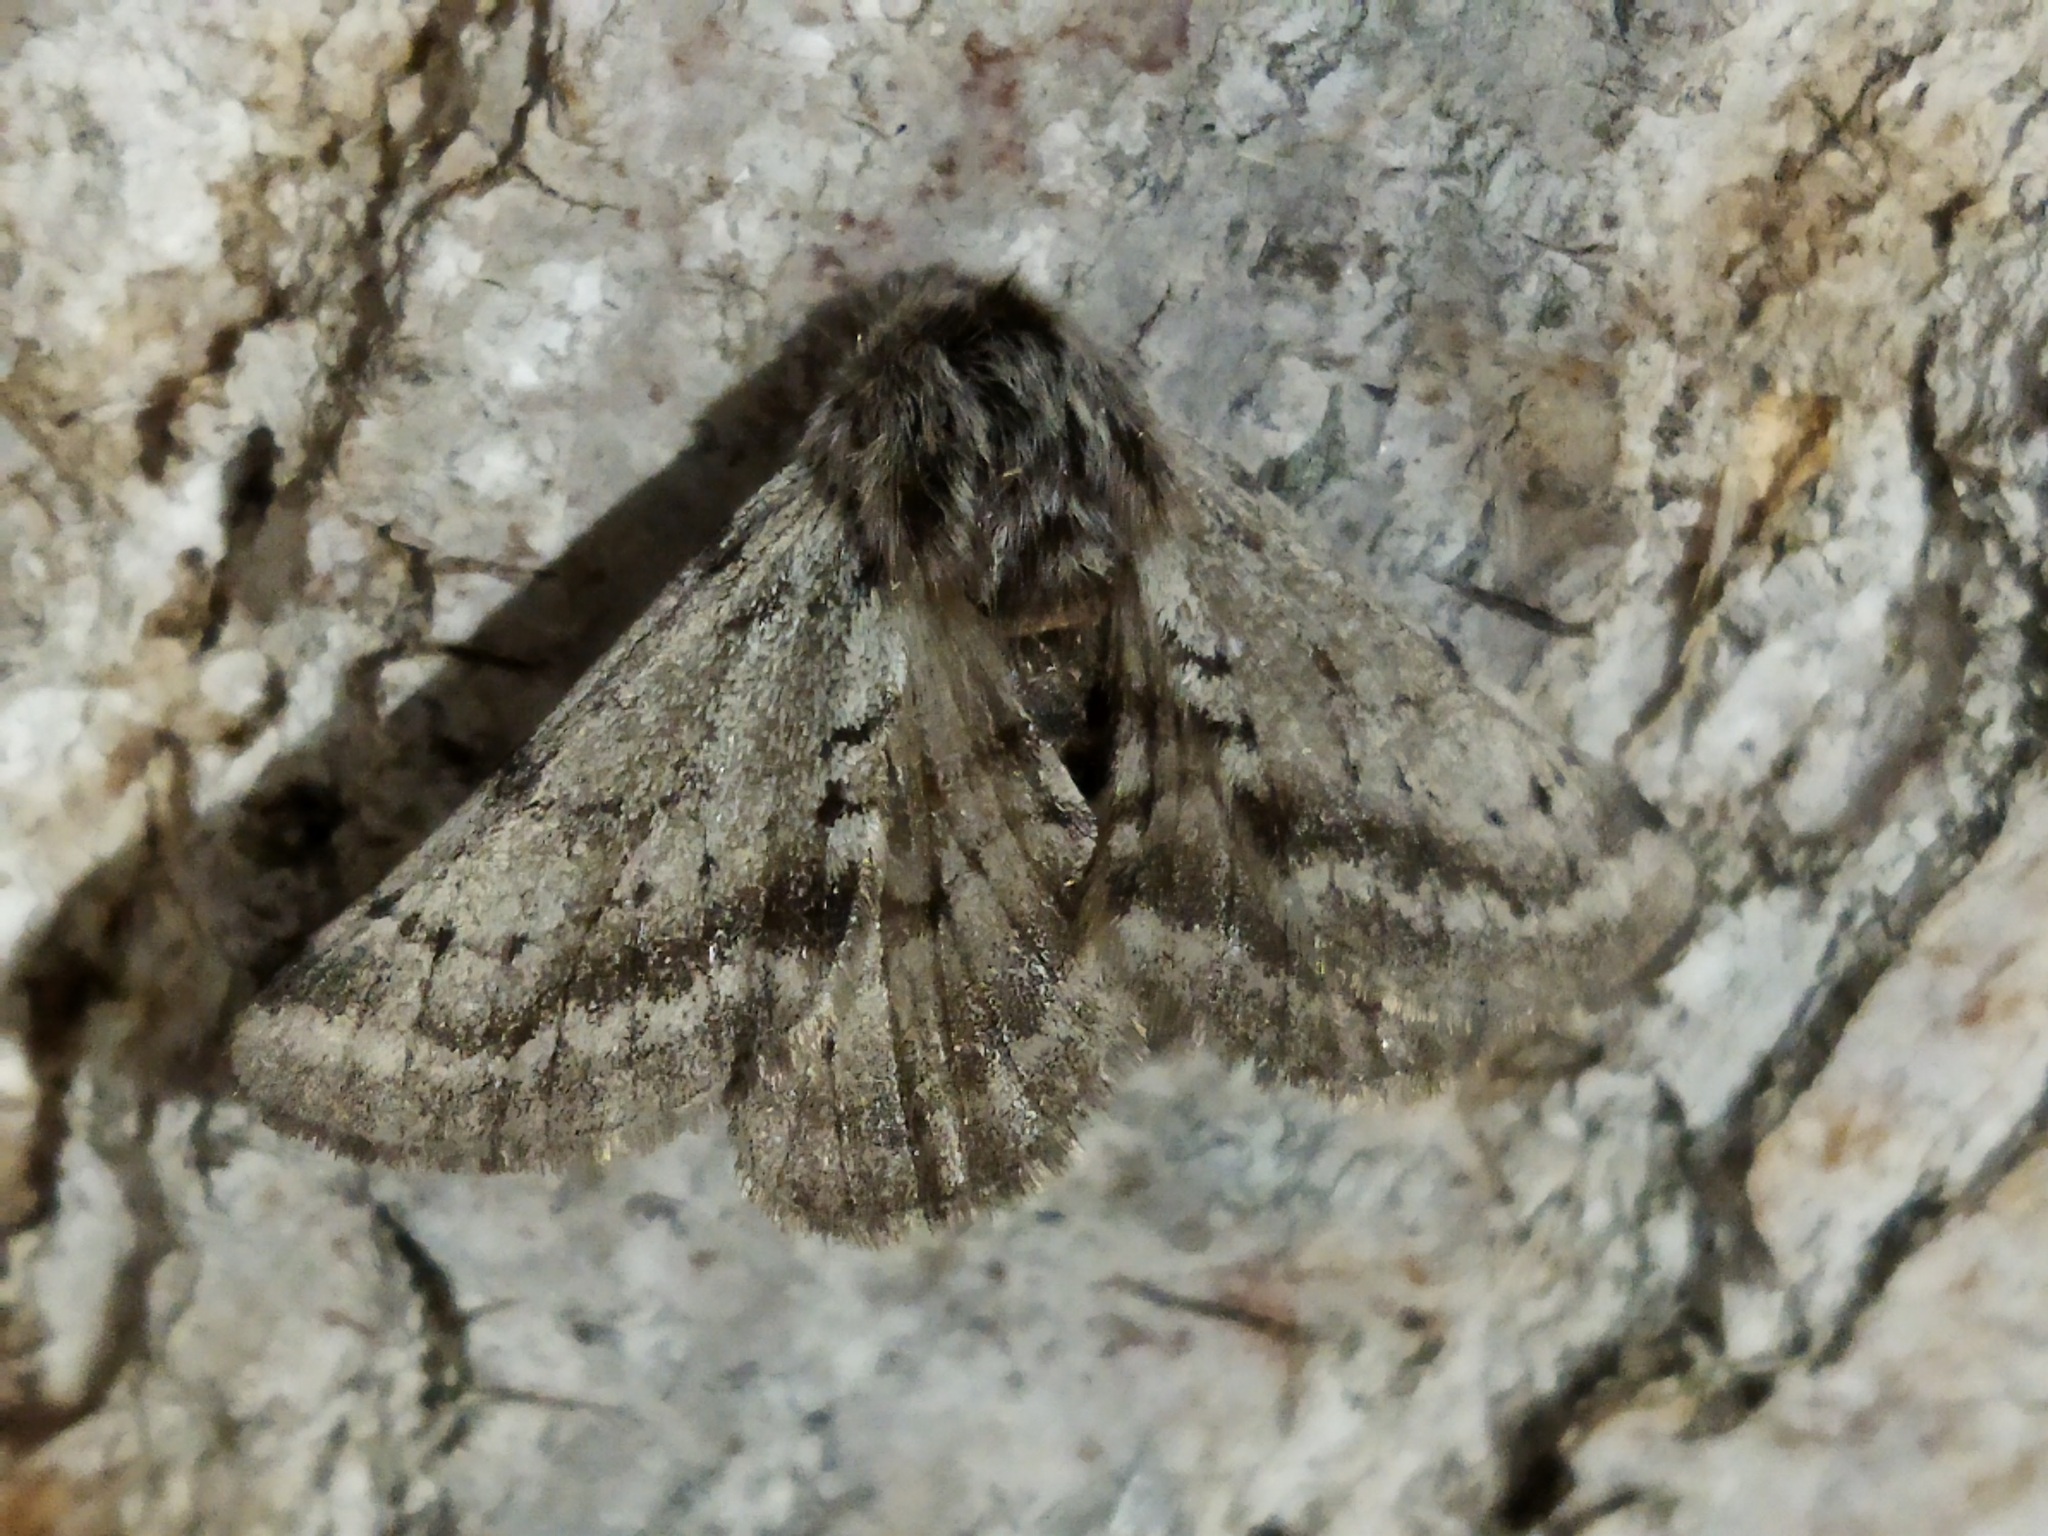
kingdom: Animalia
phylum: Arthropoda
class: Insecta
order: Lepidoptera
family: Geometridae
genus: Lycia
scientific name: Lycia graecarius
